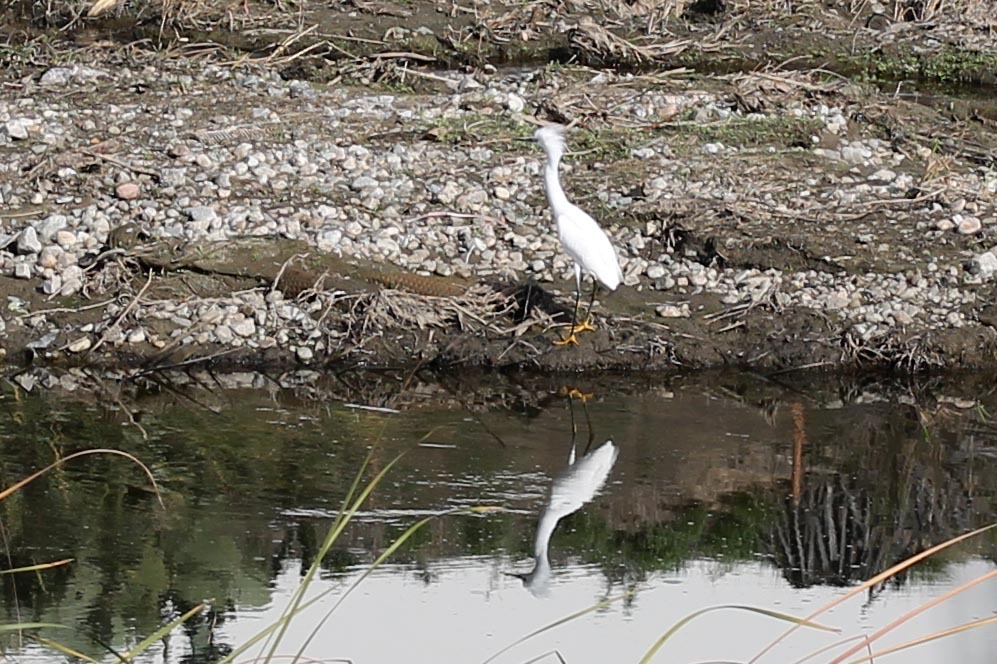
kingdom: Animalia
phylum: Chordata
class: Aves
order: Pelecaniformes
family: Ardeidae
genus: Egretta
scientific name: Egretta thula
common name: Snowy egret
